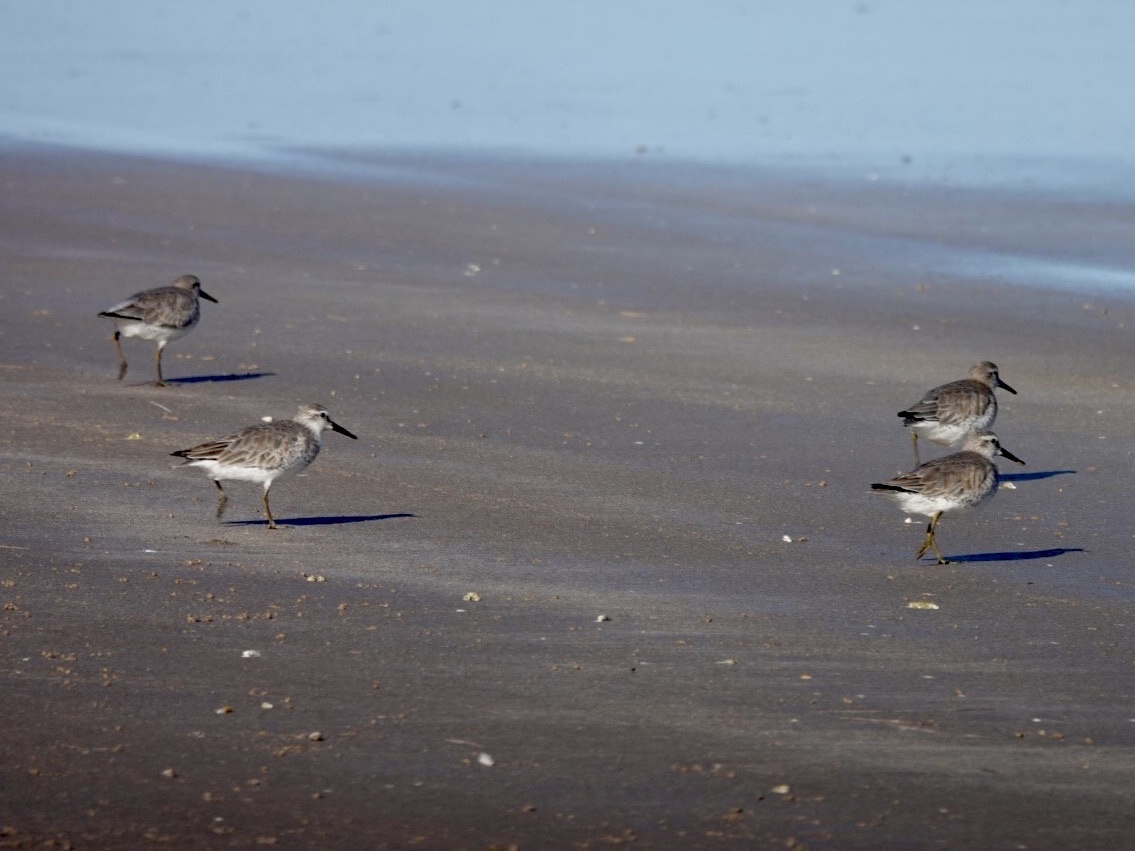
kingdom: Animalia
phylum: Chordata
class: Aves
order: Charadriiformes
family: Scolopacidae
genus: Calidris
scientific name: Calidris canutus
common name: Red knot
